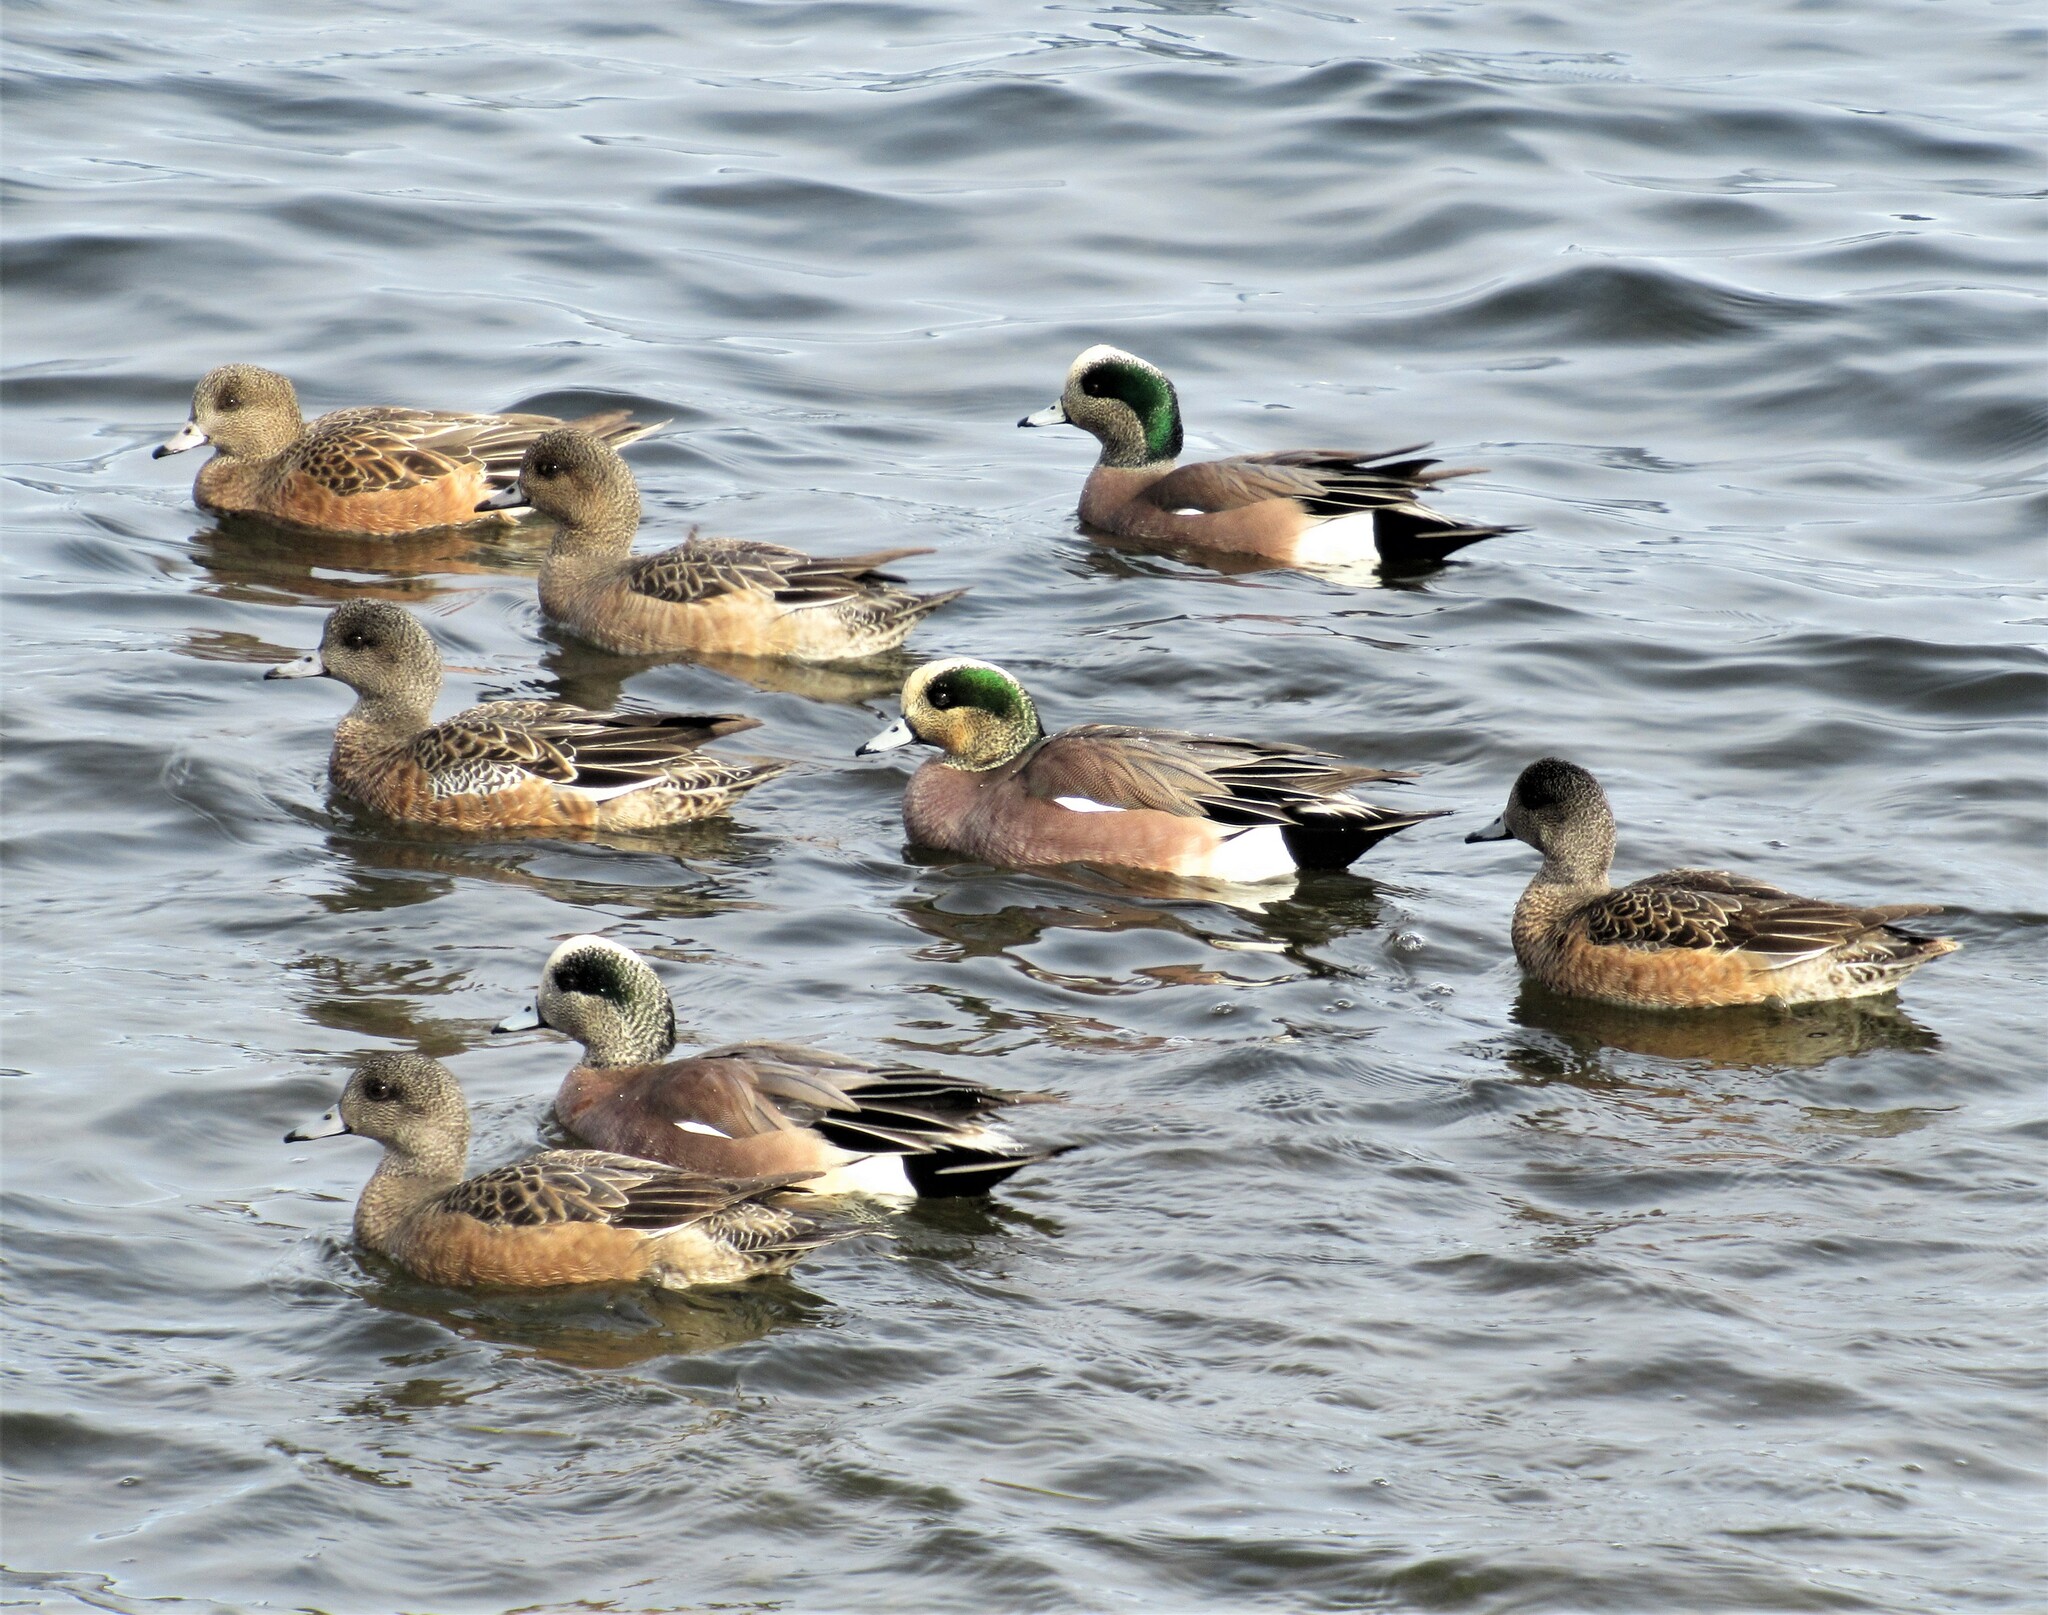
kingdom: Animalia
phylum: Chordata
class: Aves
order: Anseriformes
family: Anatidae
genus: Mareca
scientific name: Mareca americana
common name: American wigeon
